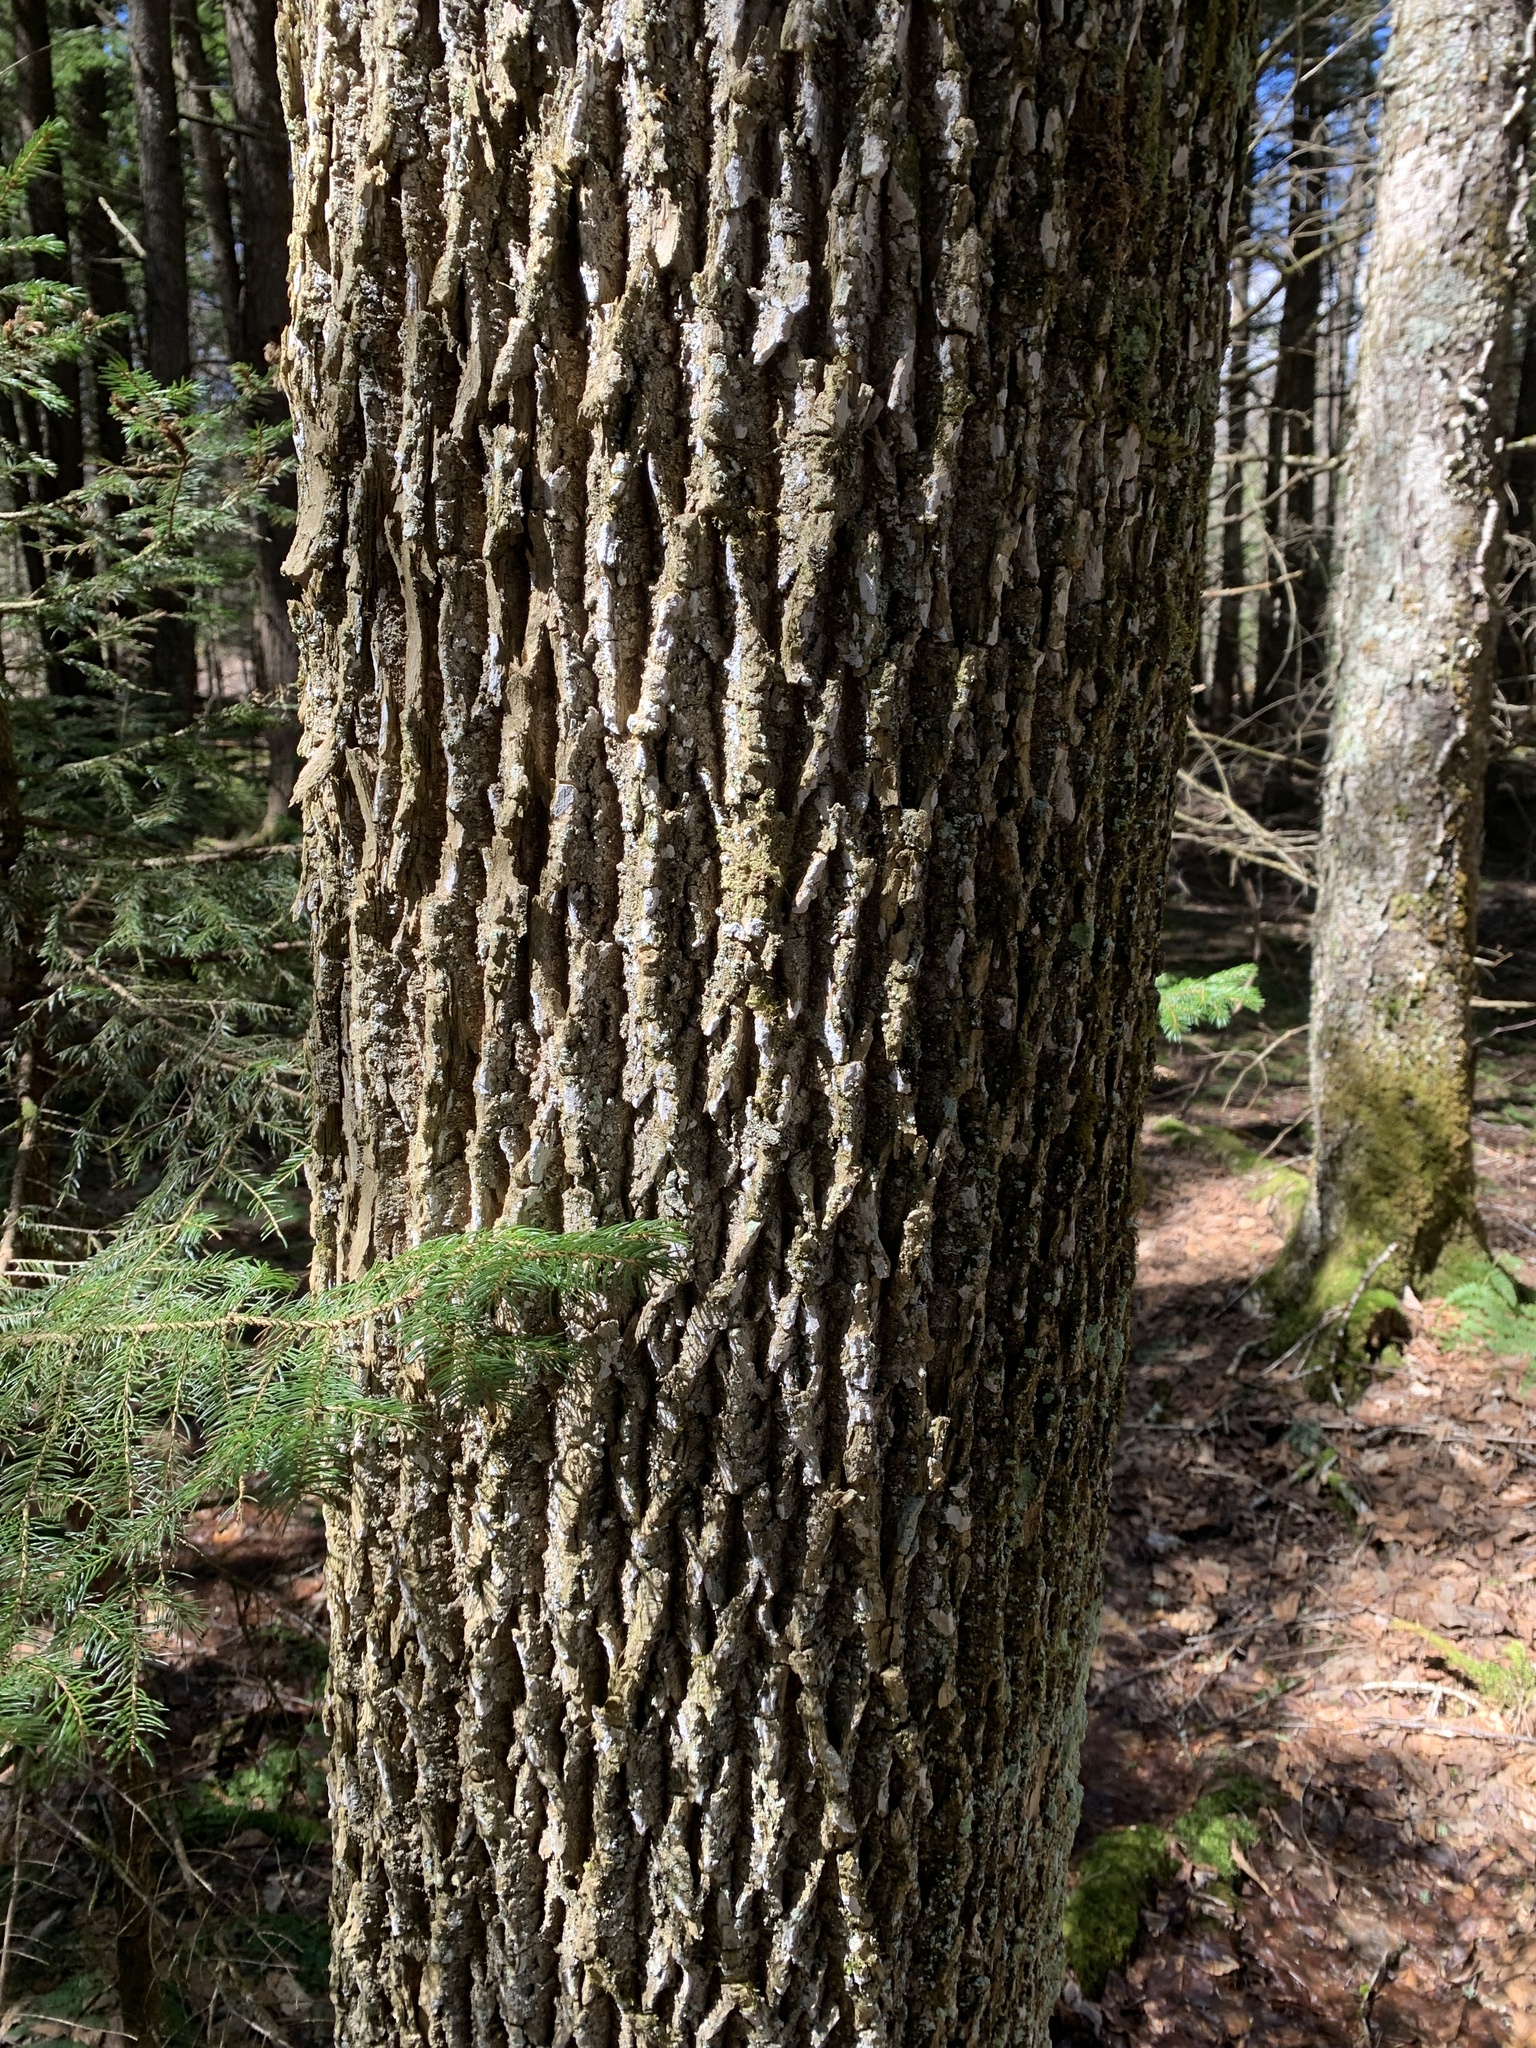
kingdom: Plantae
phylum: Tracheophyta
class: Magnoliopsida
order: Lamiales
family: Oleaceae
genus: Fraxinus
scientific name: Fraxinus americana
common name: White ash
